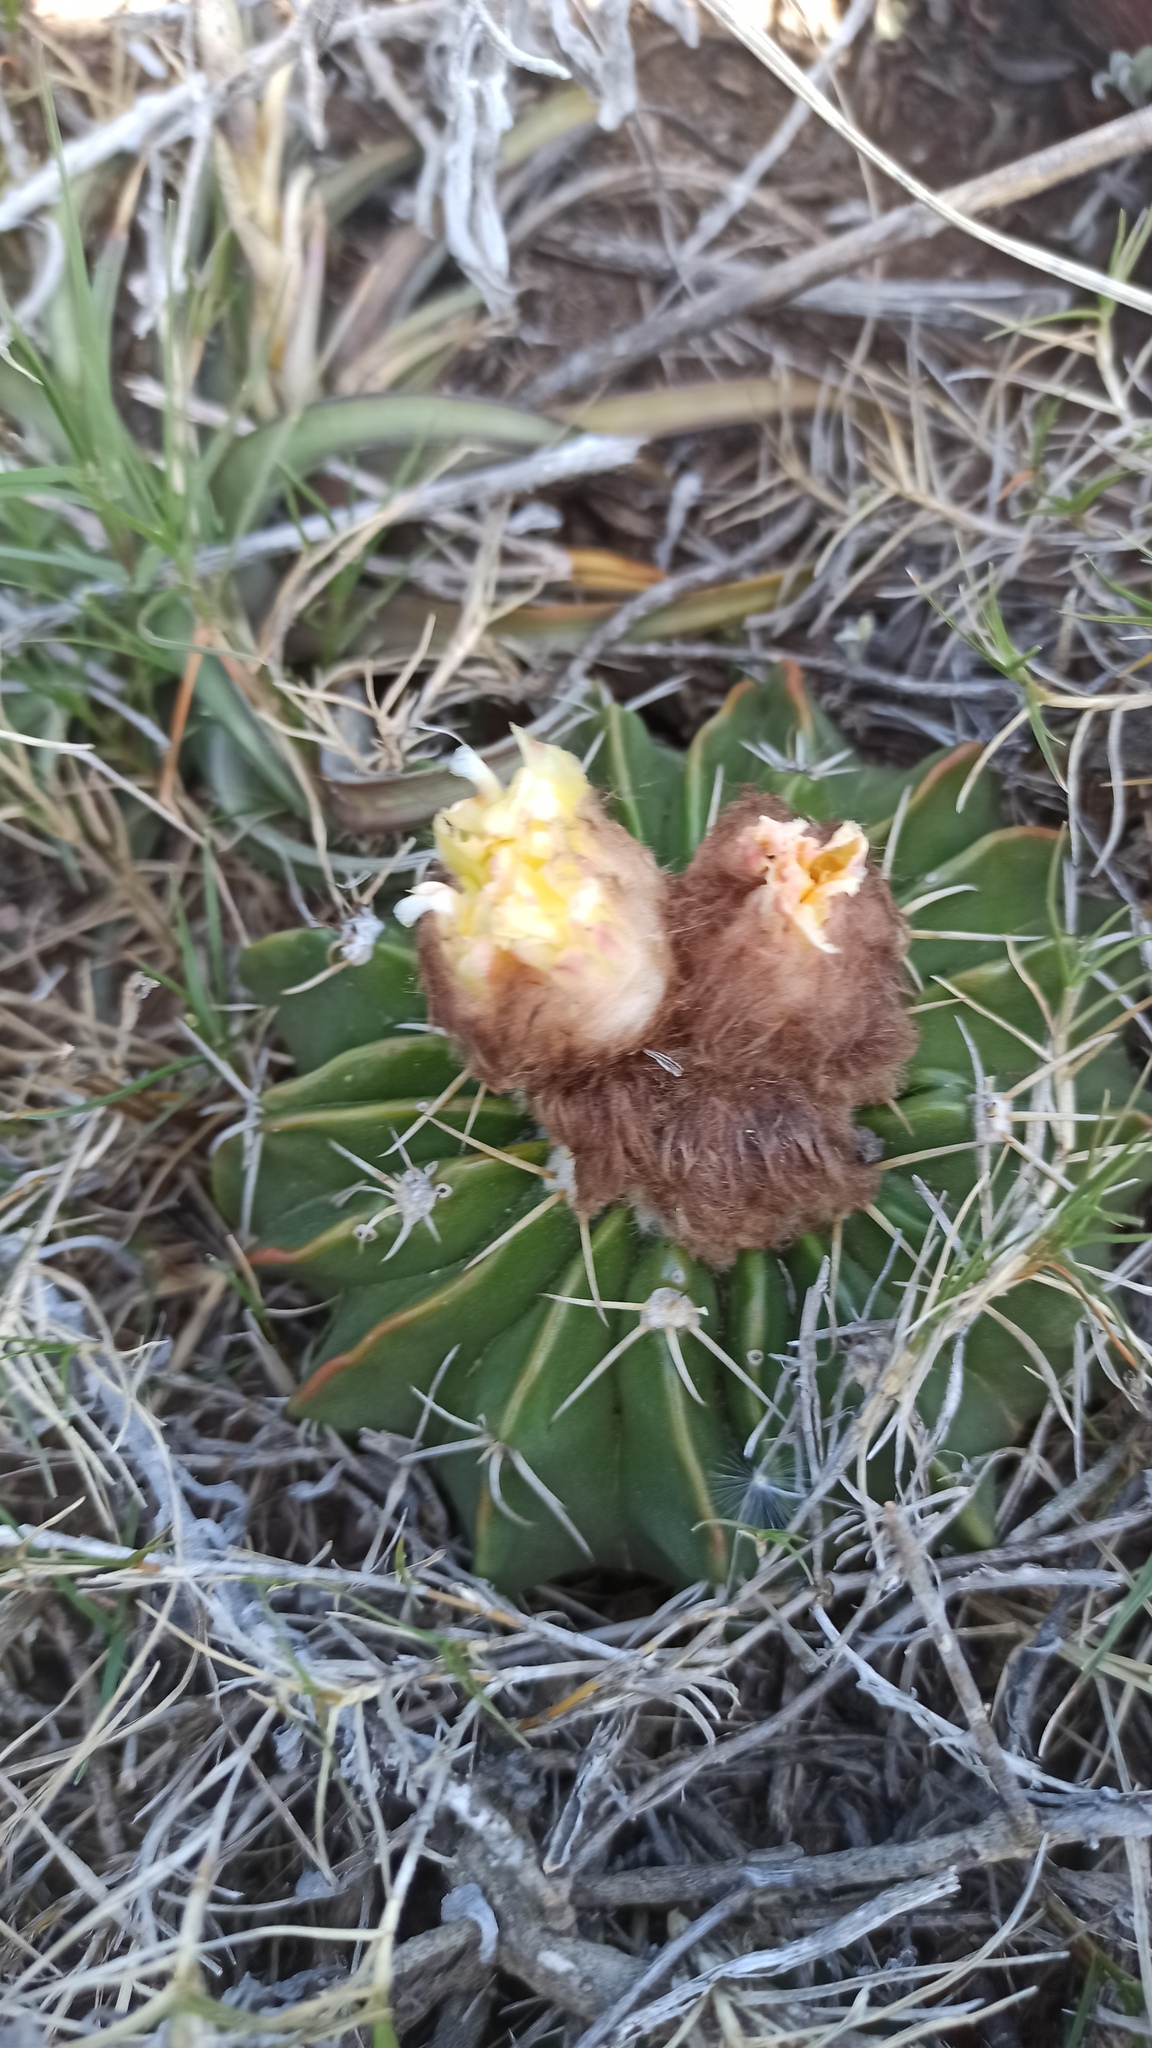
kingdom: Plantae
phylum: Tracheophyta
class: Magnoliopsida
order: Caryophyllales
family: Cactaceae
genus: Parodia
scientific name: Parodia erinacea
